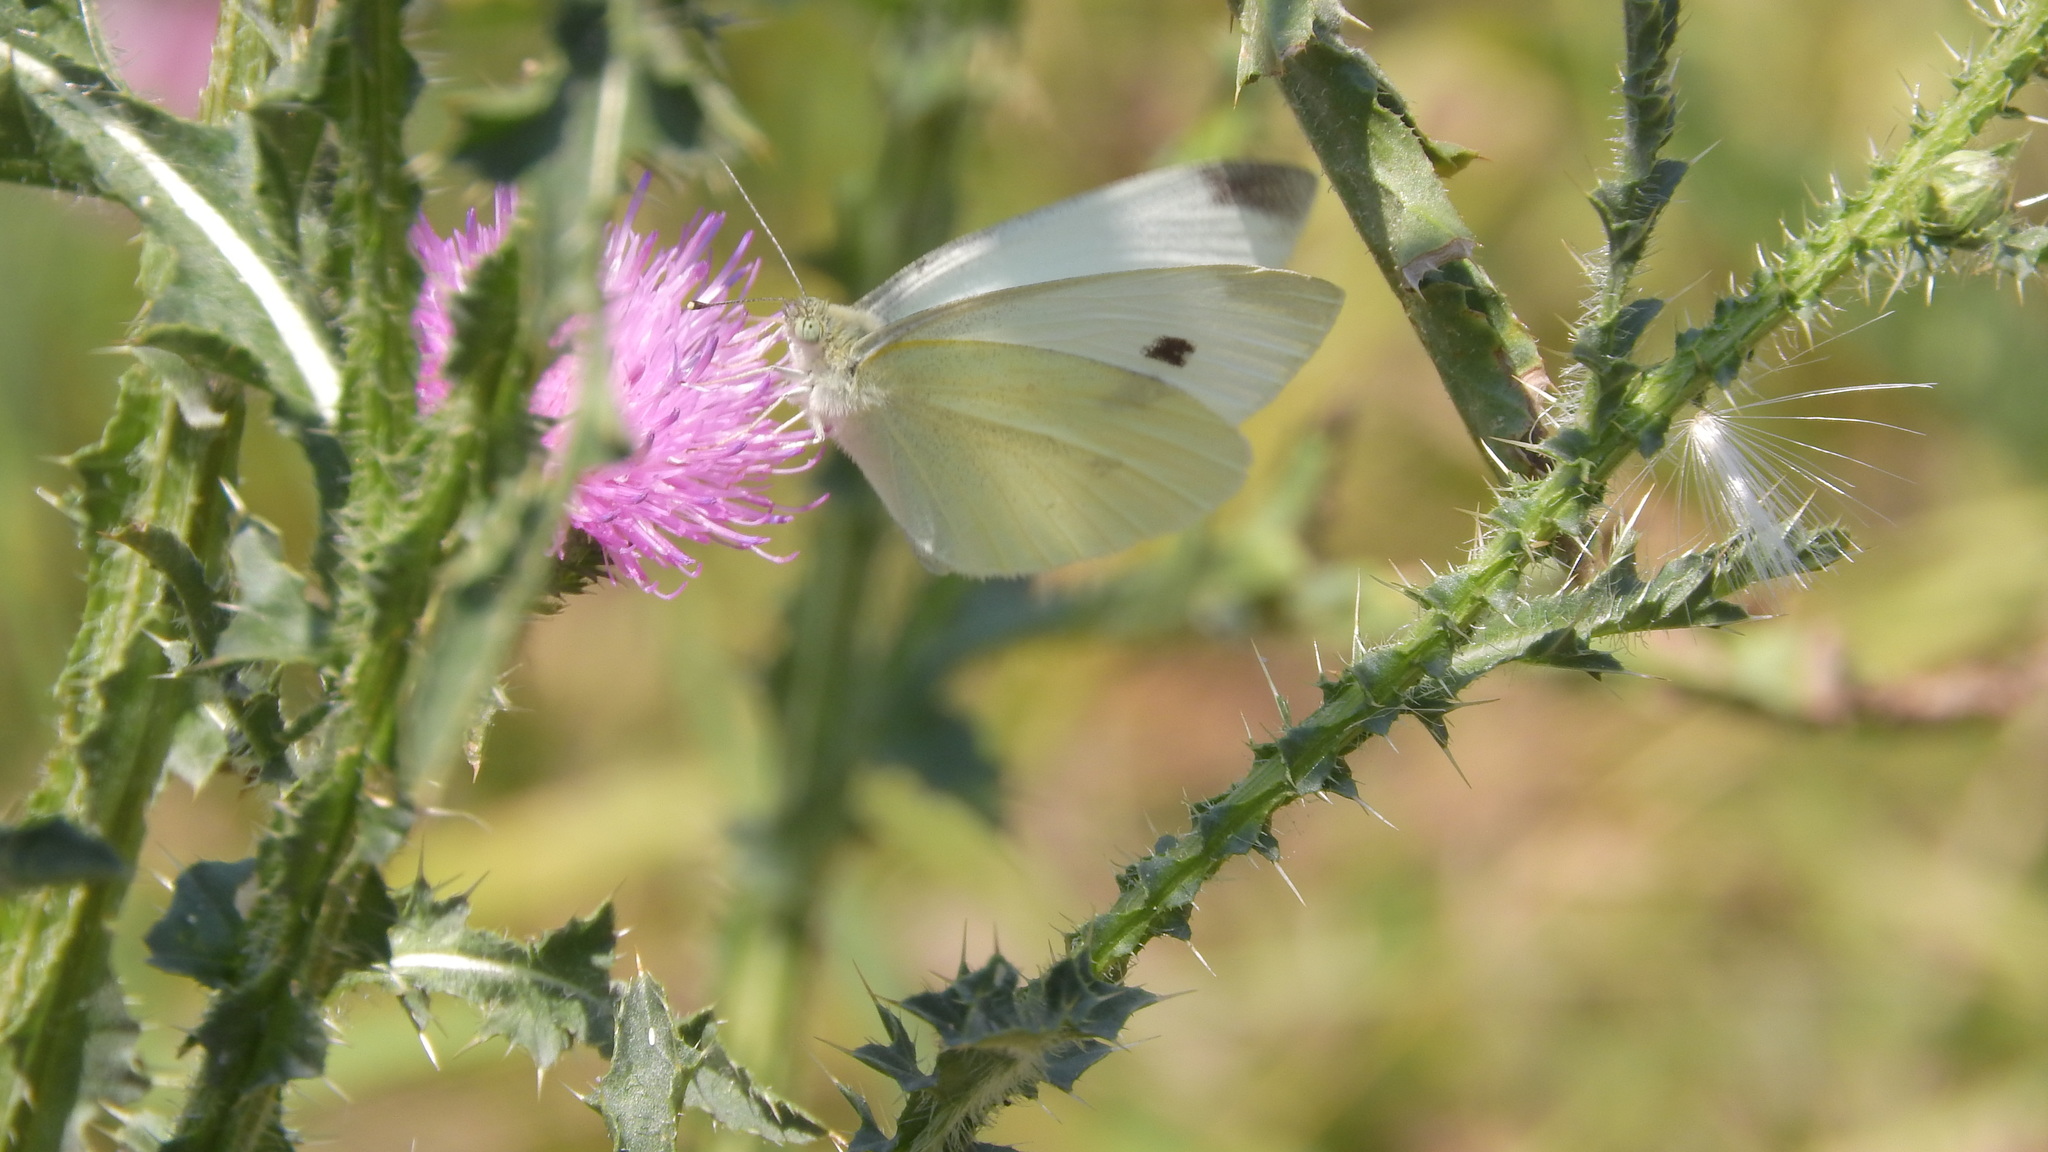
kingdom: Animalia
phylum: Arthropoda
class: Insecta
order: Lepidoptera
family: Pieridae
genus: Pieris
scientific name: Pieris rapae
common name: Small white
